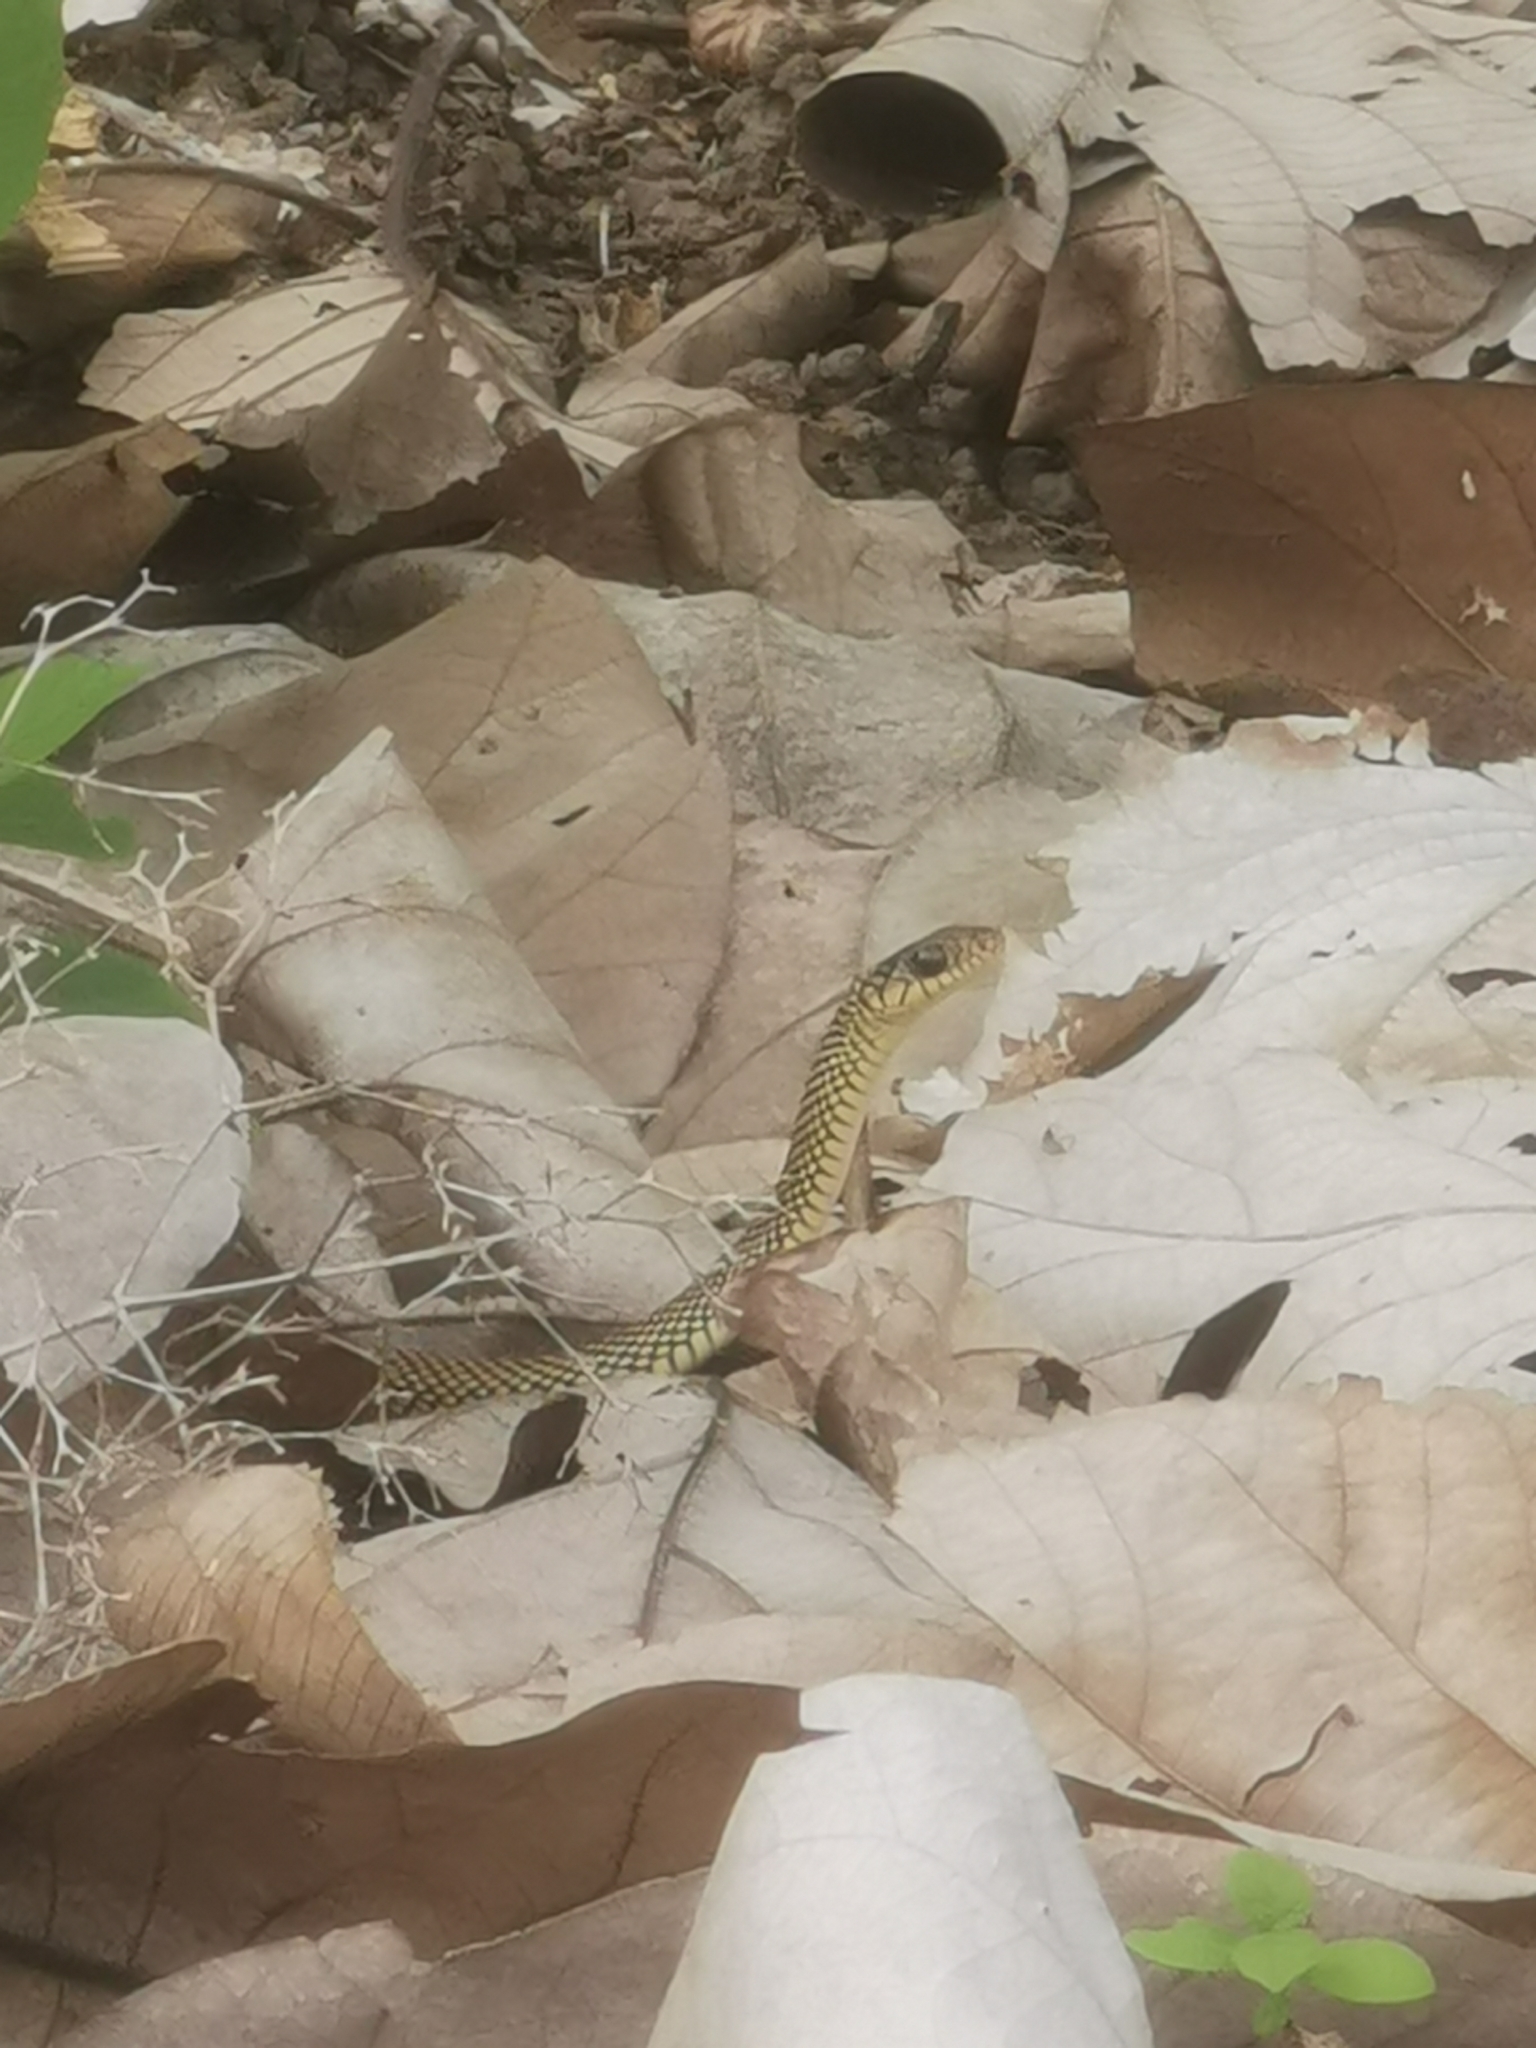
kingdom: Animalia
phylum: Chordata
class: Squamata
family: Colubridae
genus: Drymobius
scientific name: Drymobius margaritiferus
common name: Central american speckled racer
